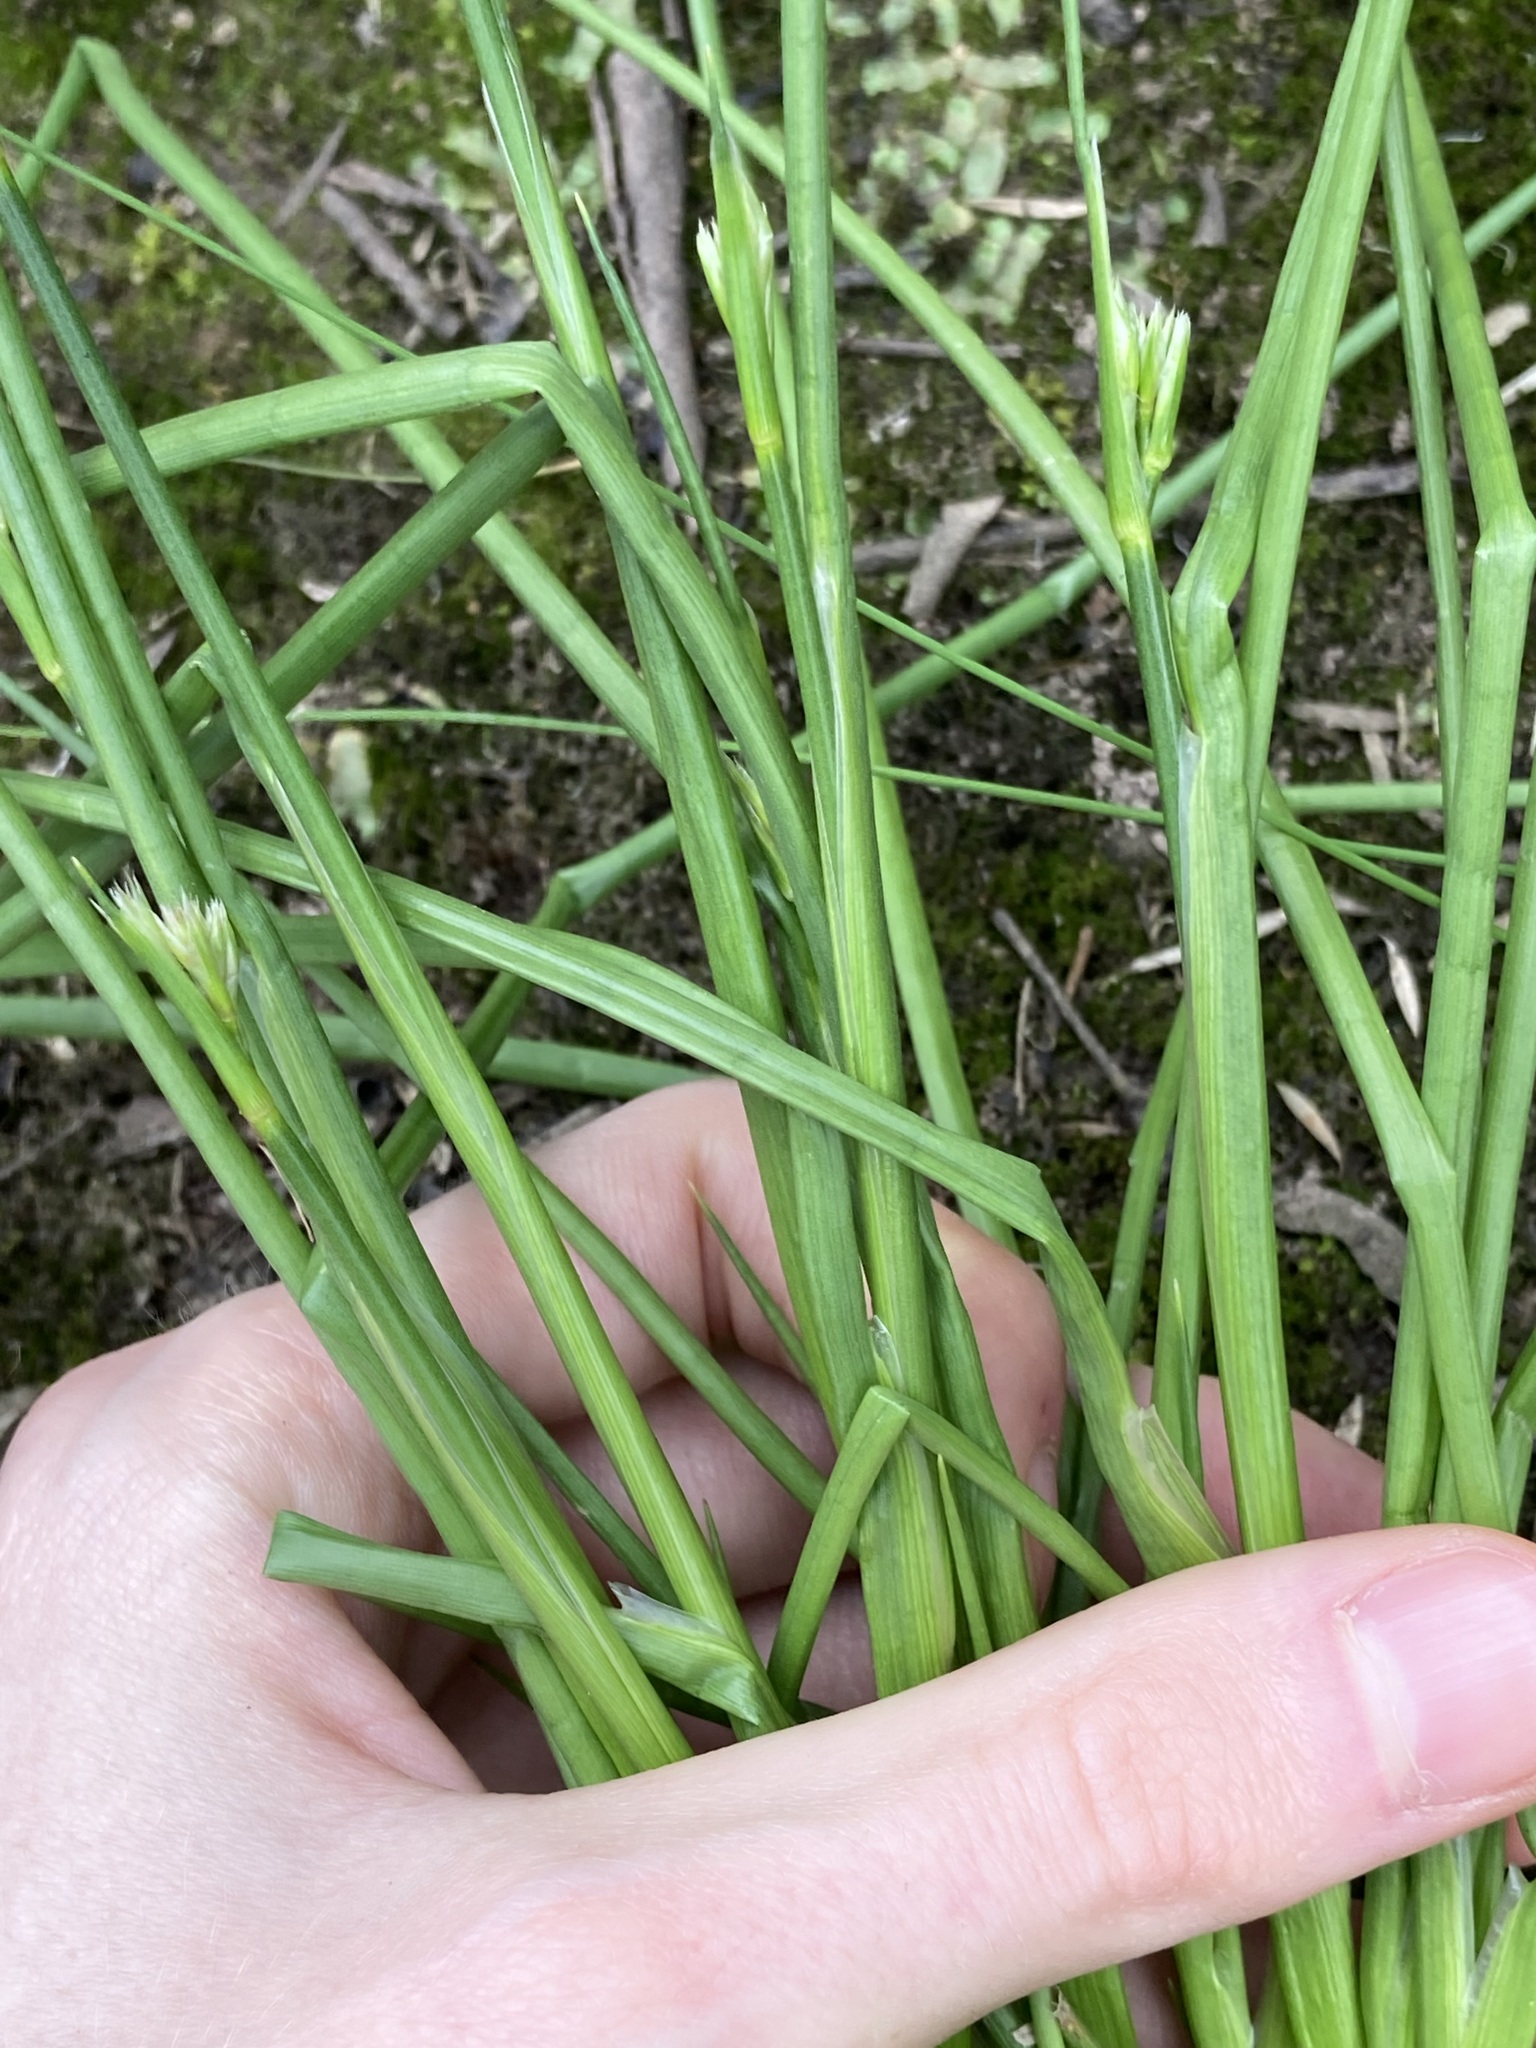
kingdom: Plantae
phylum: Tracheophyta
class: Liliopsida
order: Poales
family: Juncaceae
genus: Juncus
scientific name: Juncus articulatus
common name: Jointed rush
